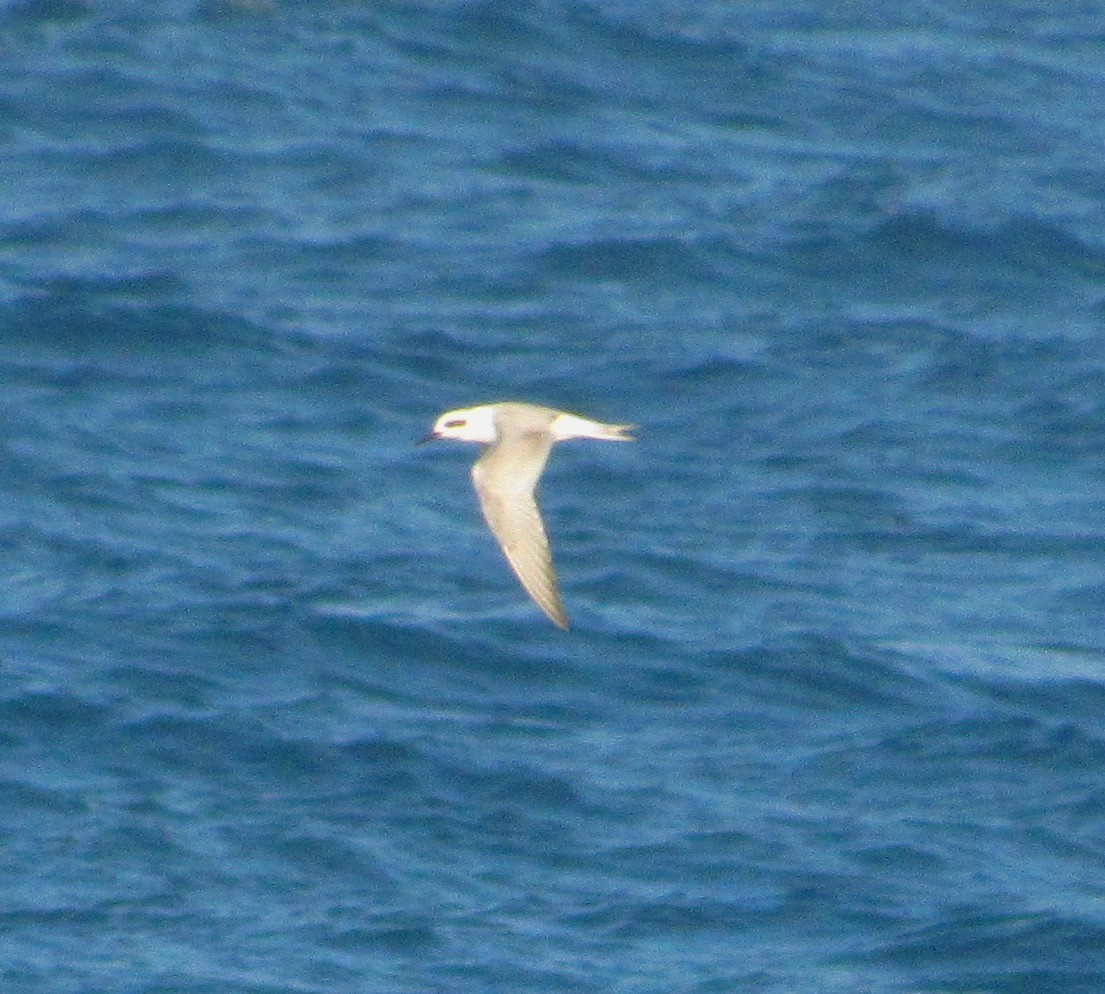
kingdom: Animalia
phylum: Chordata
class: Aves
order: Charadriiformes
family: Laridae
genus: Sterna
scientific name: Sterna trudeaui
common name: Snowy-crowned tern
